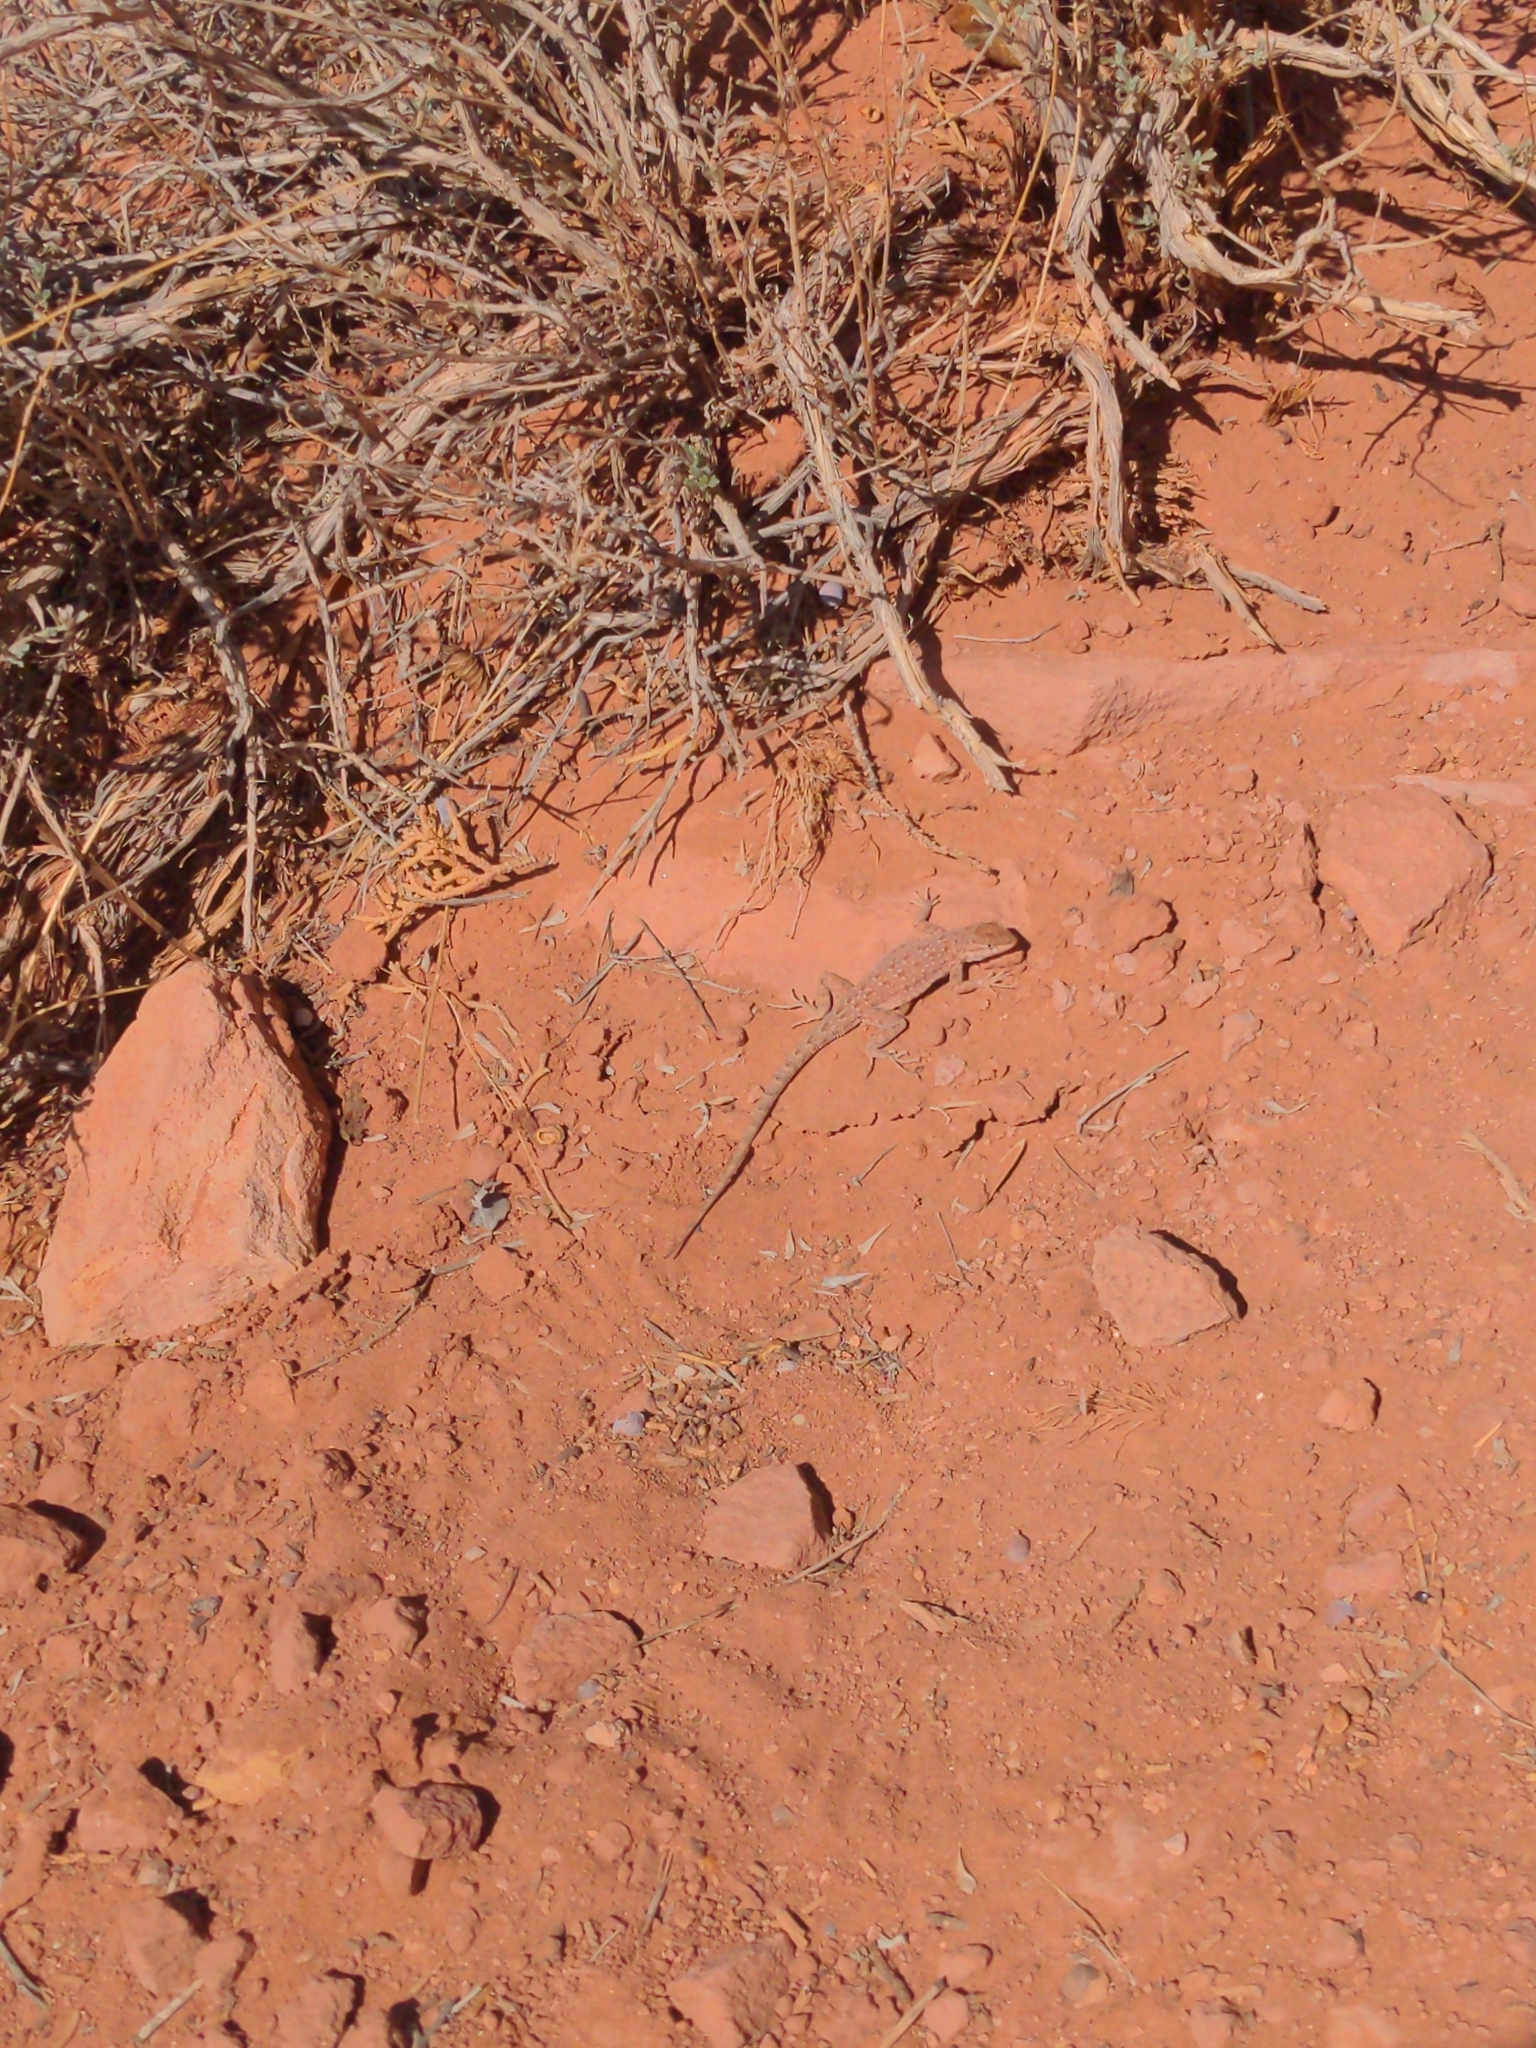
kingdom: Animalia
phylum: Chordata
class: Squamata
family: Phrynosomatidae
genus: Uta
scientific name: Uta stansburiana
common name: Side-blotched lizard
